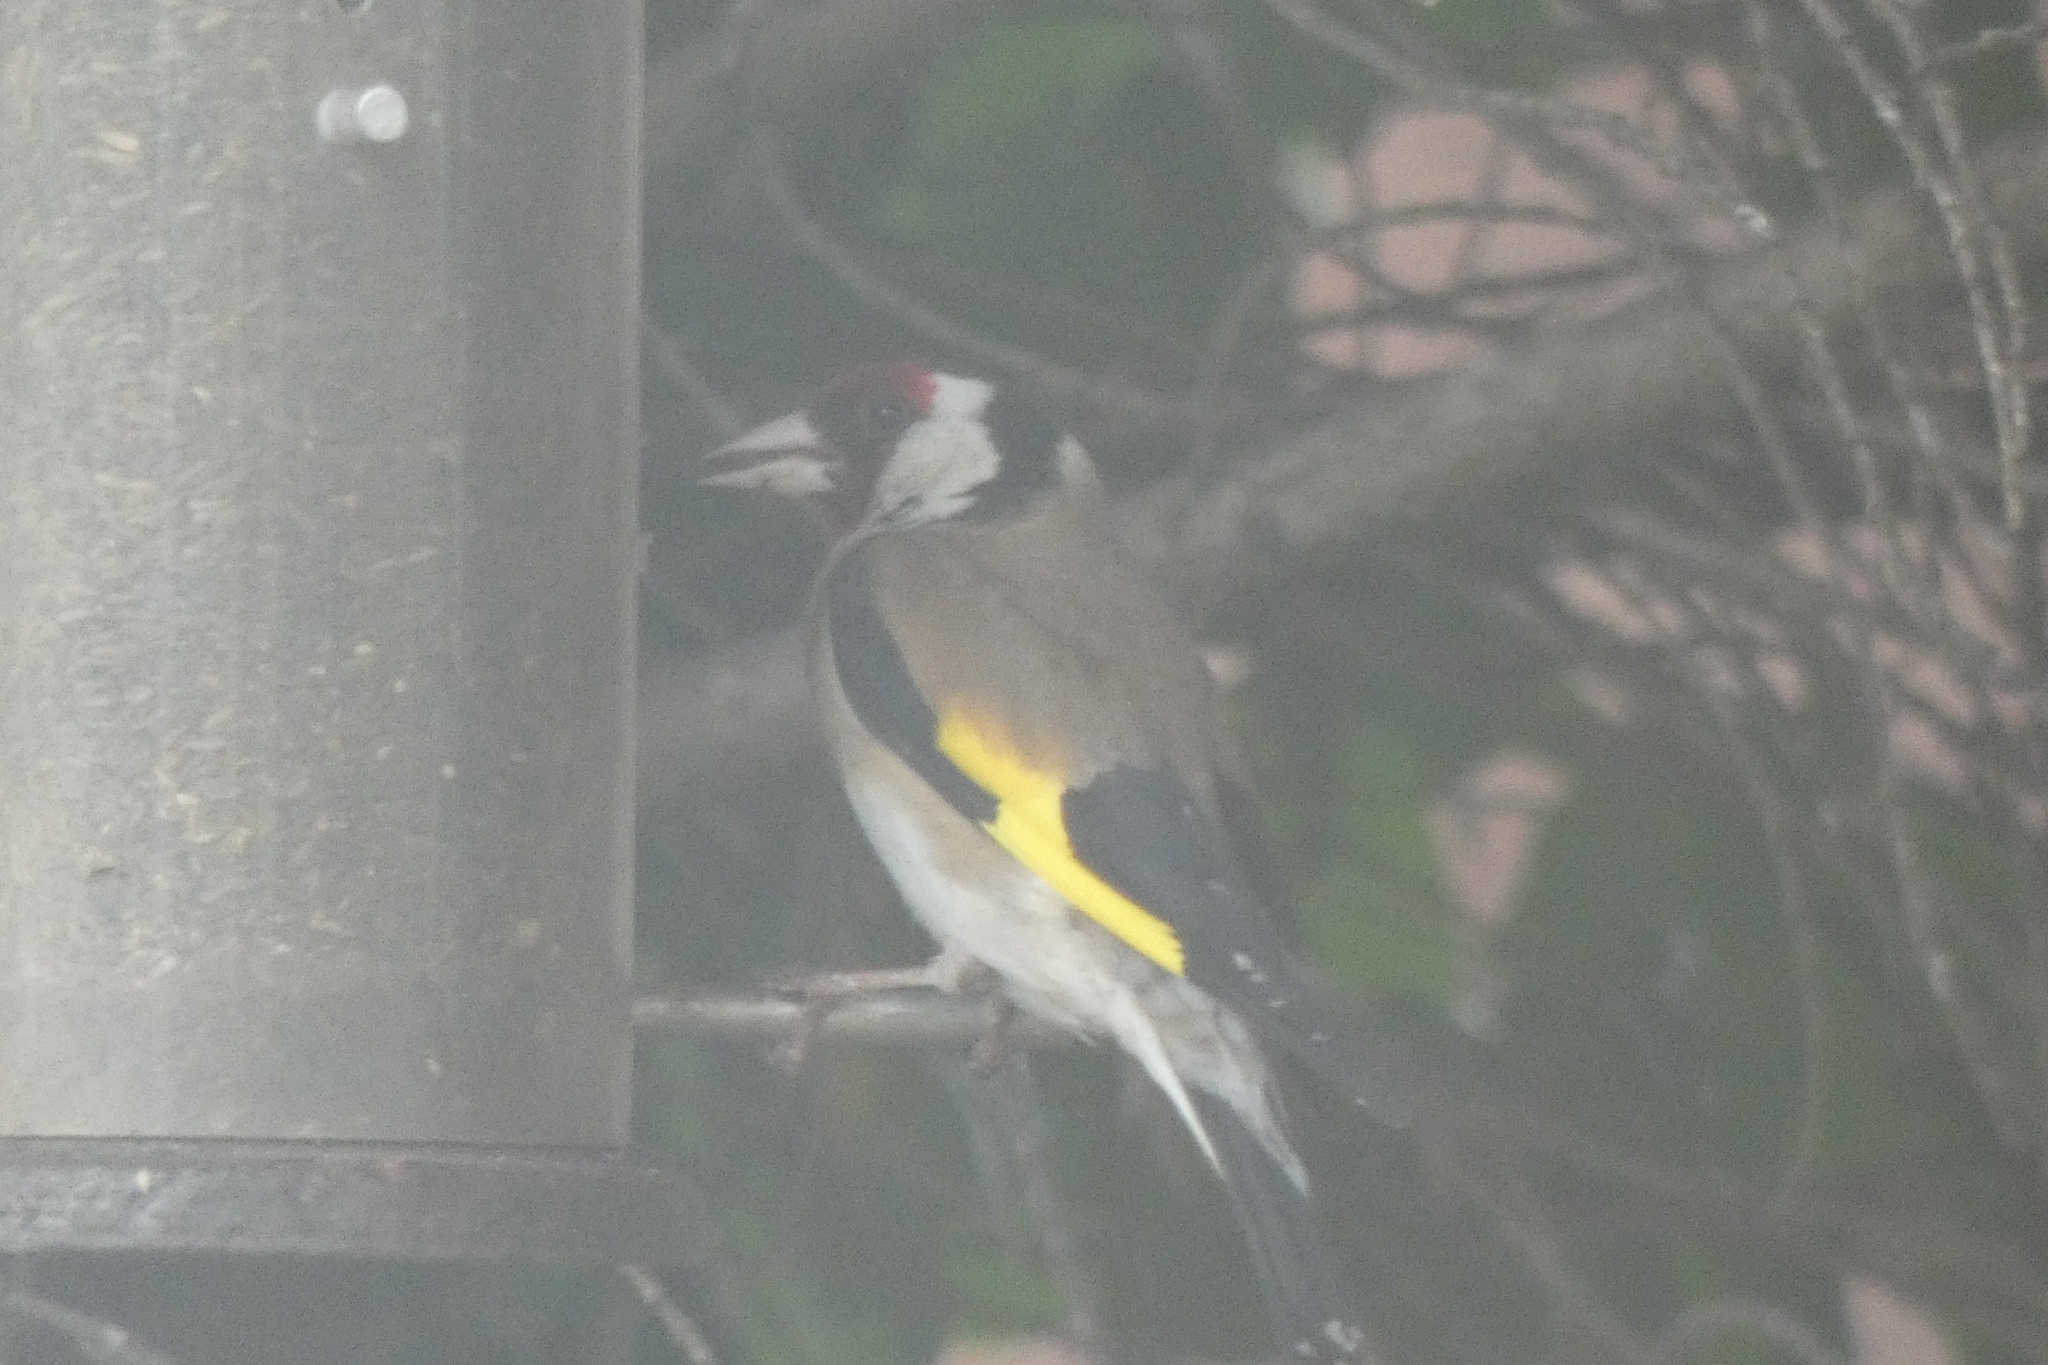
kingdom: Animalia
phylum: Chordata
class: Aves
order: Passeriformes
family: Fringillidae
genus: Carduelis
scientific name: Carduelis carduelis
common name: European goldfinch
